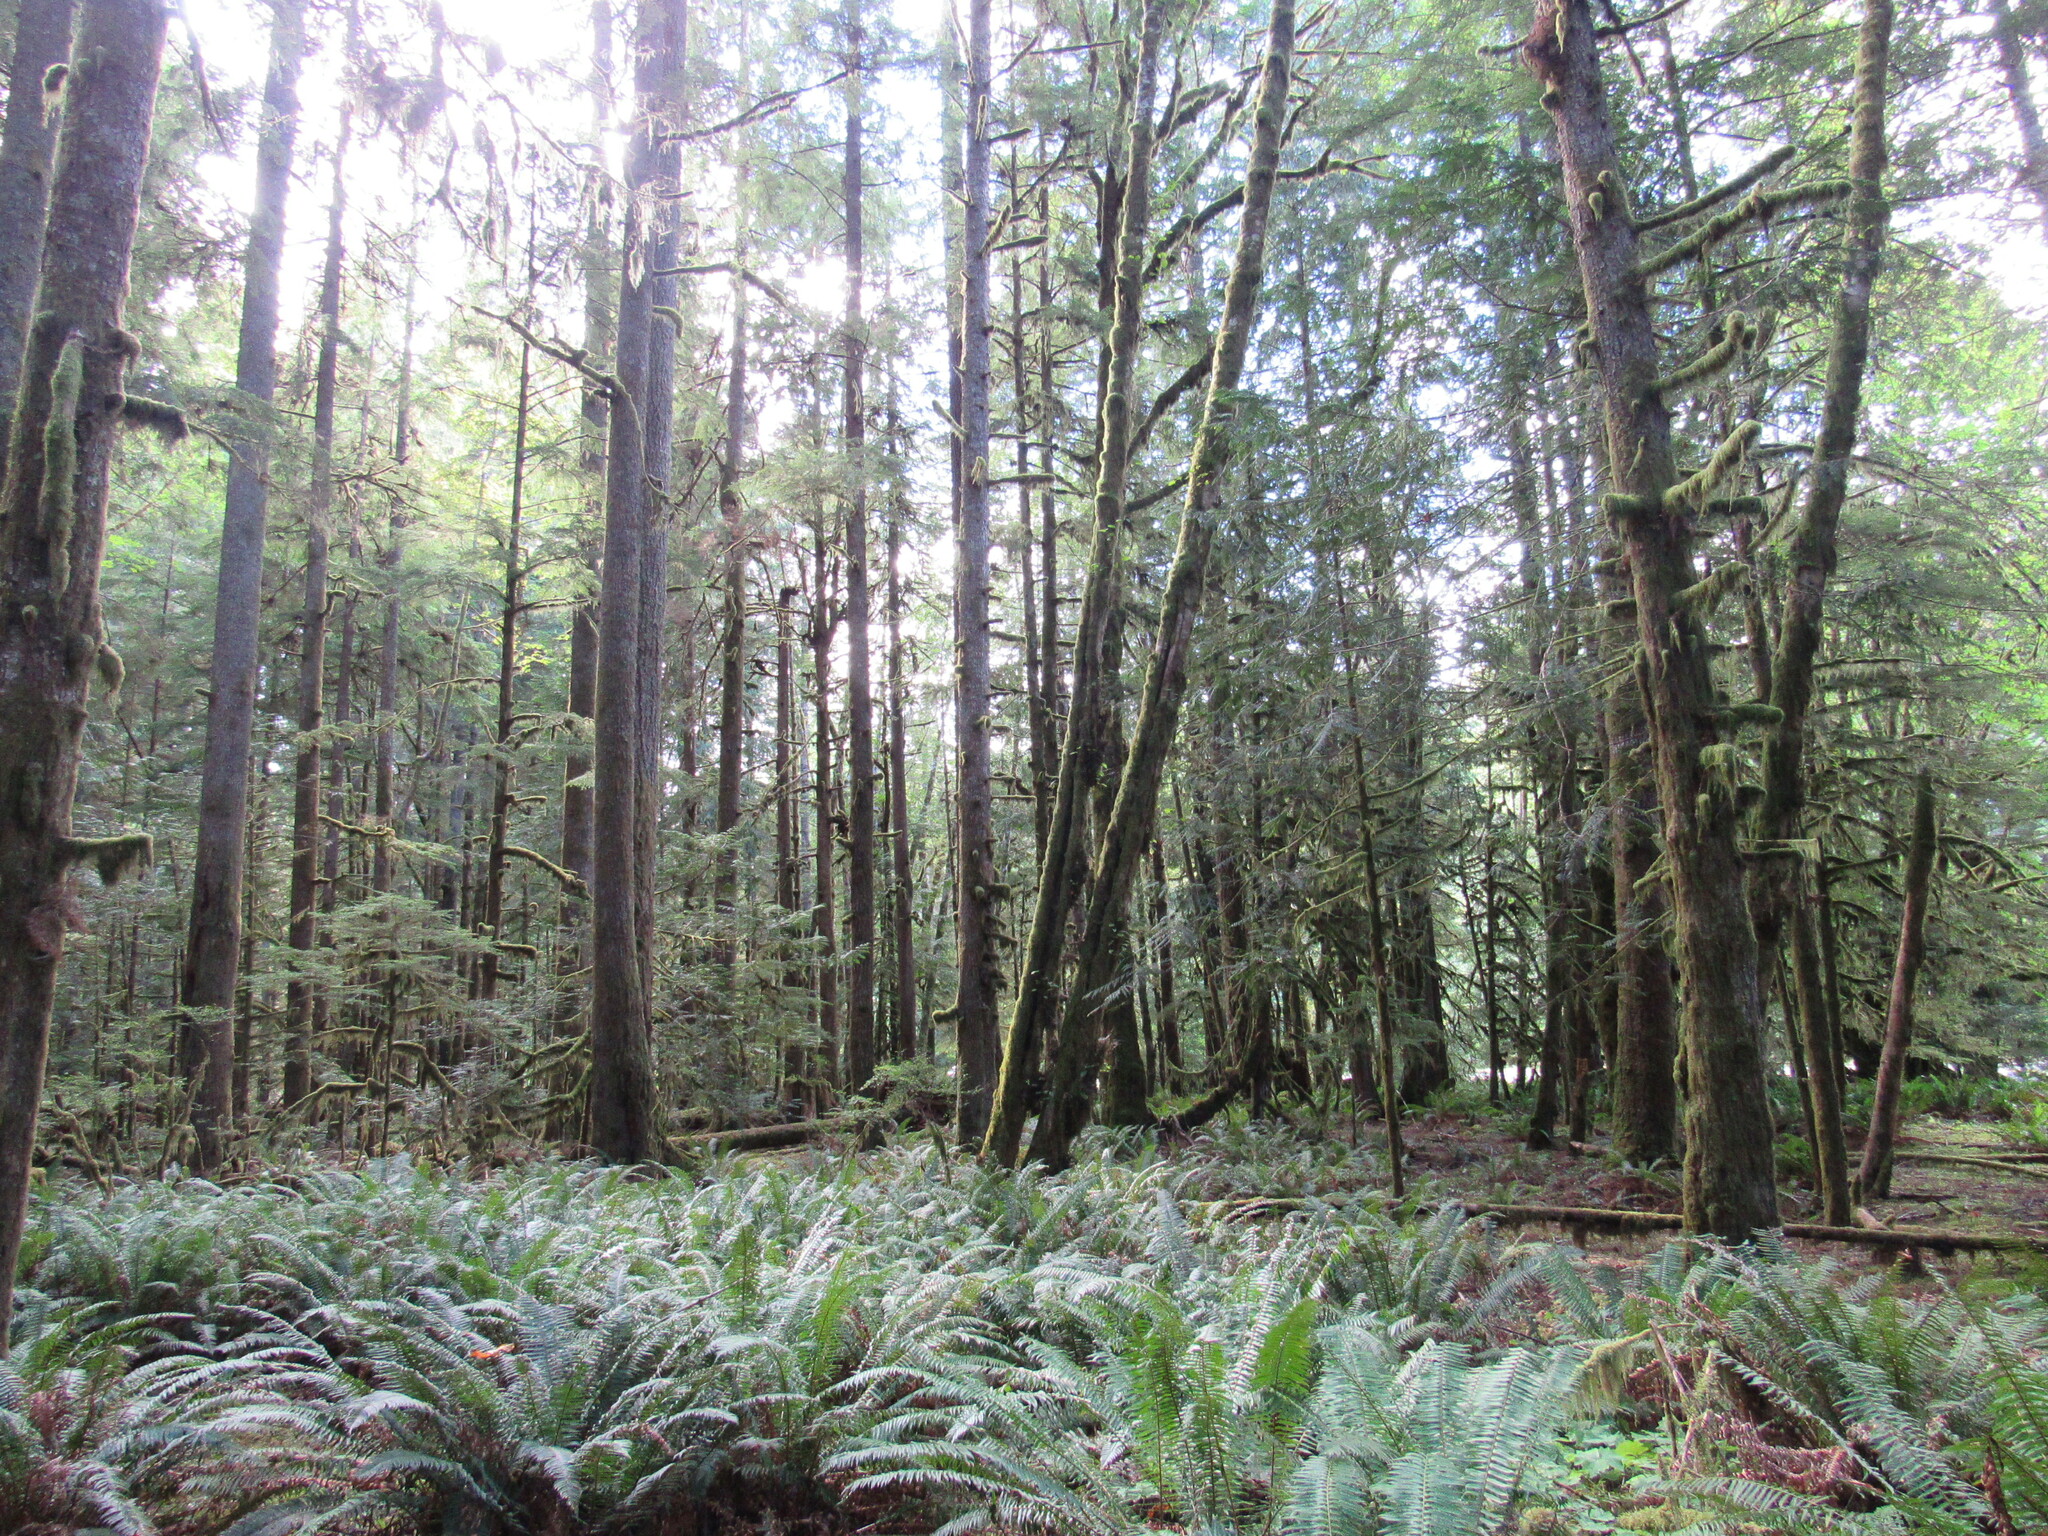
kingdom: Plantae
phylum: Tracheophyta
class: Polypodiopsida
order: Polypodiales
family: Dryopteridaceae
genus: Polystichum
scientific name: Polystichum munitum
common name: Western sword-fern
